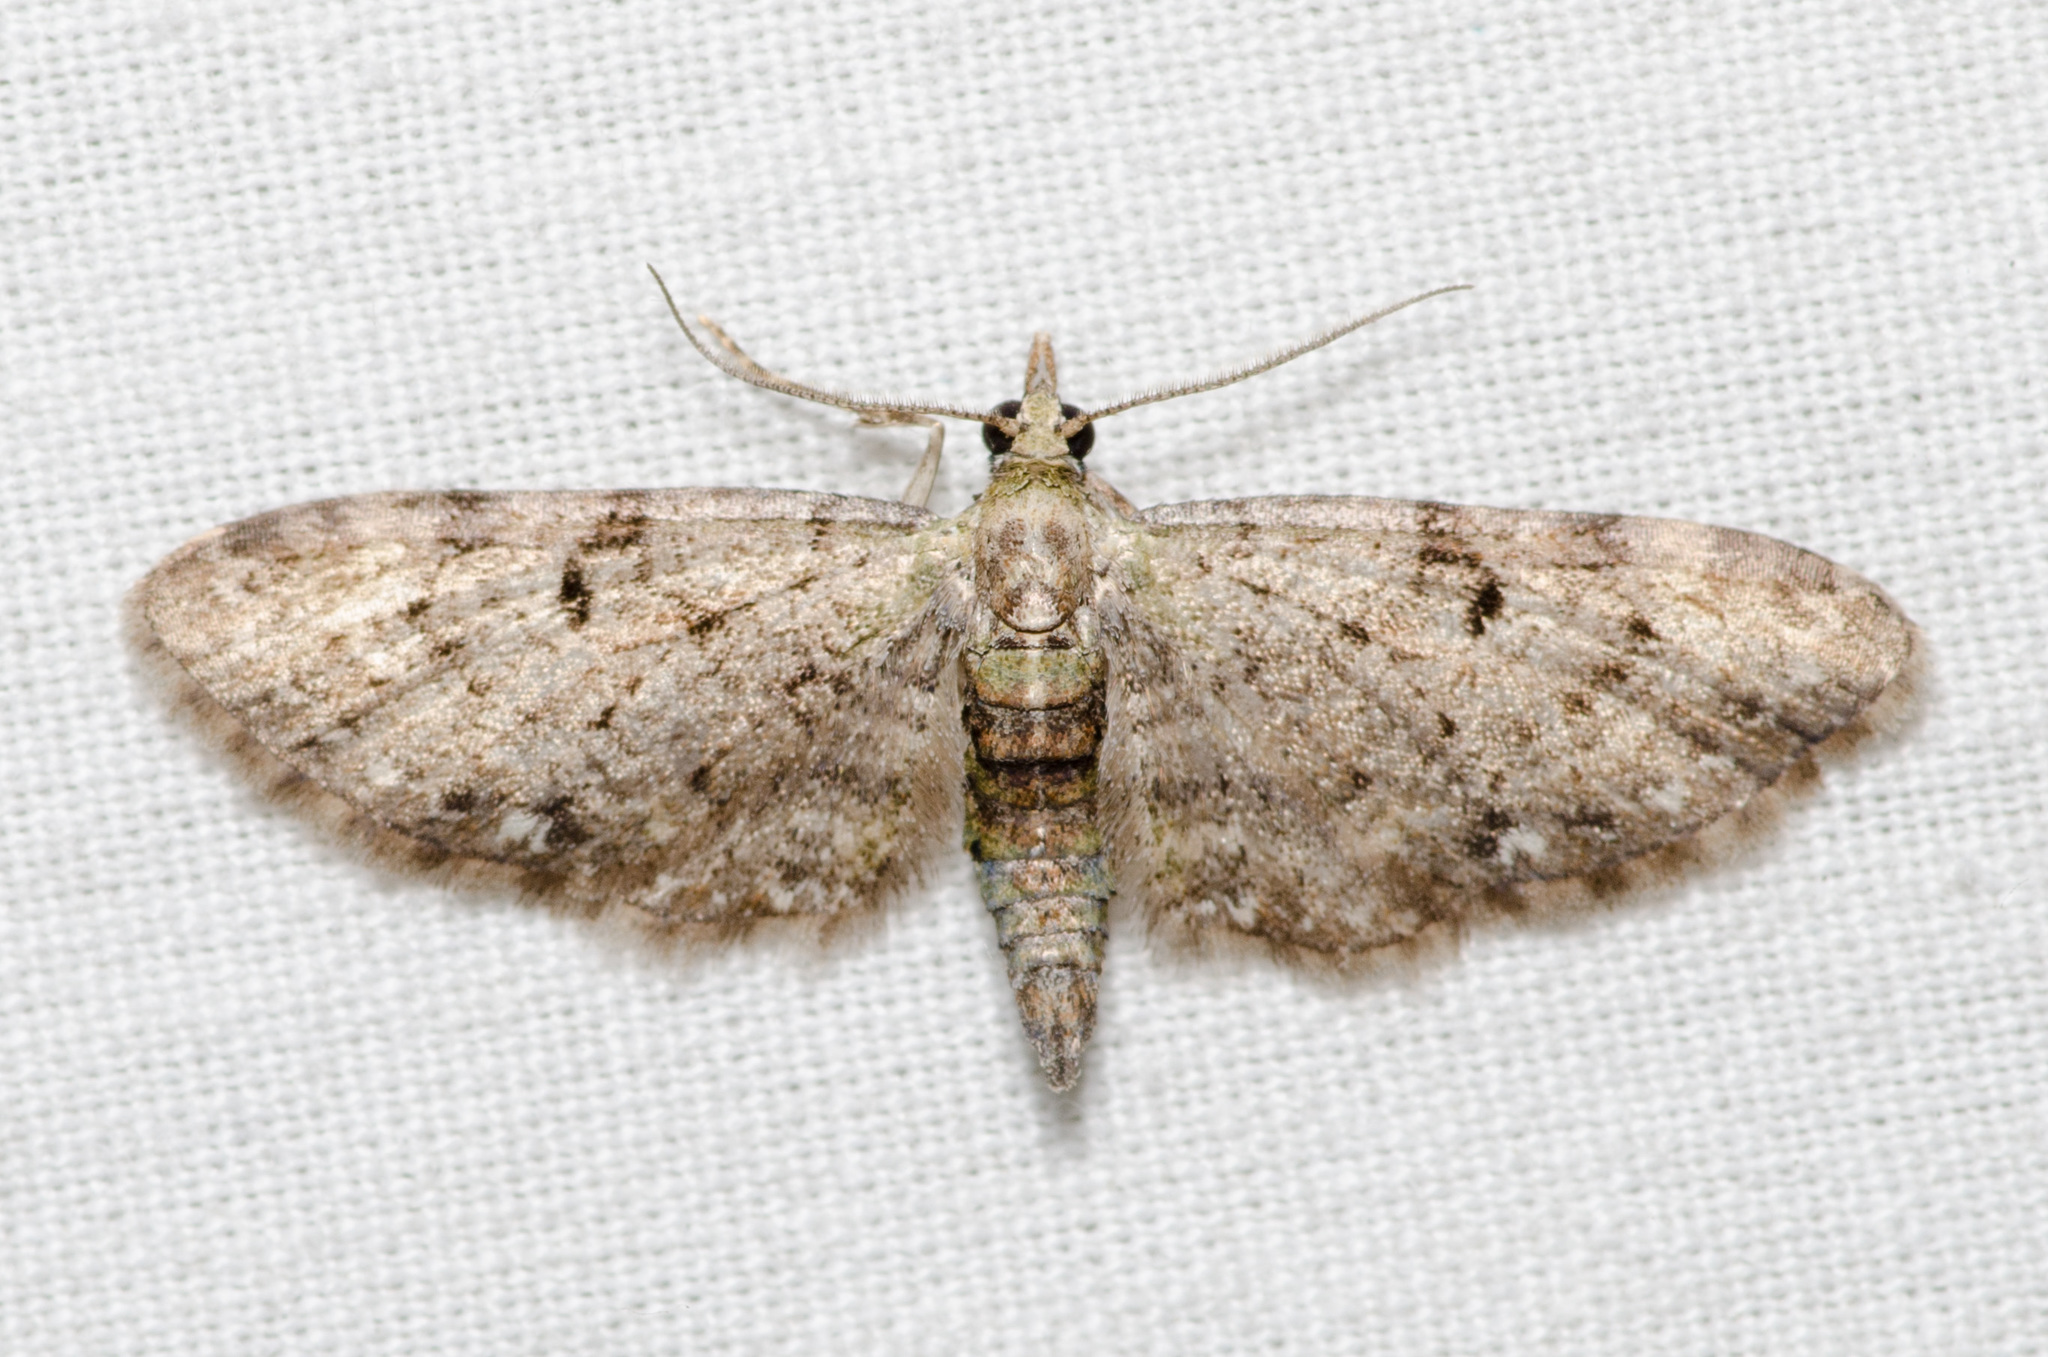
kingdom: Animalia
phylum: Arthropoda
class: Insecta
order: Lepidoptera
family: Geometridae
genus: Eupithecia
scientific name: Eupithecia miserulata
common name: Common eupithecia
